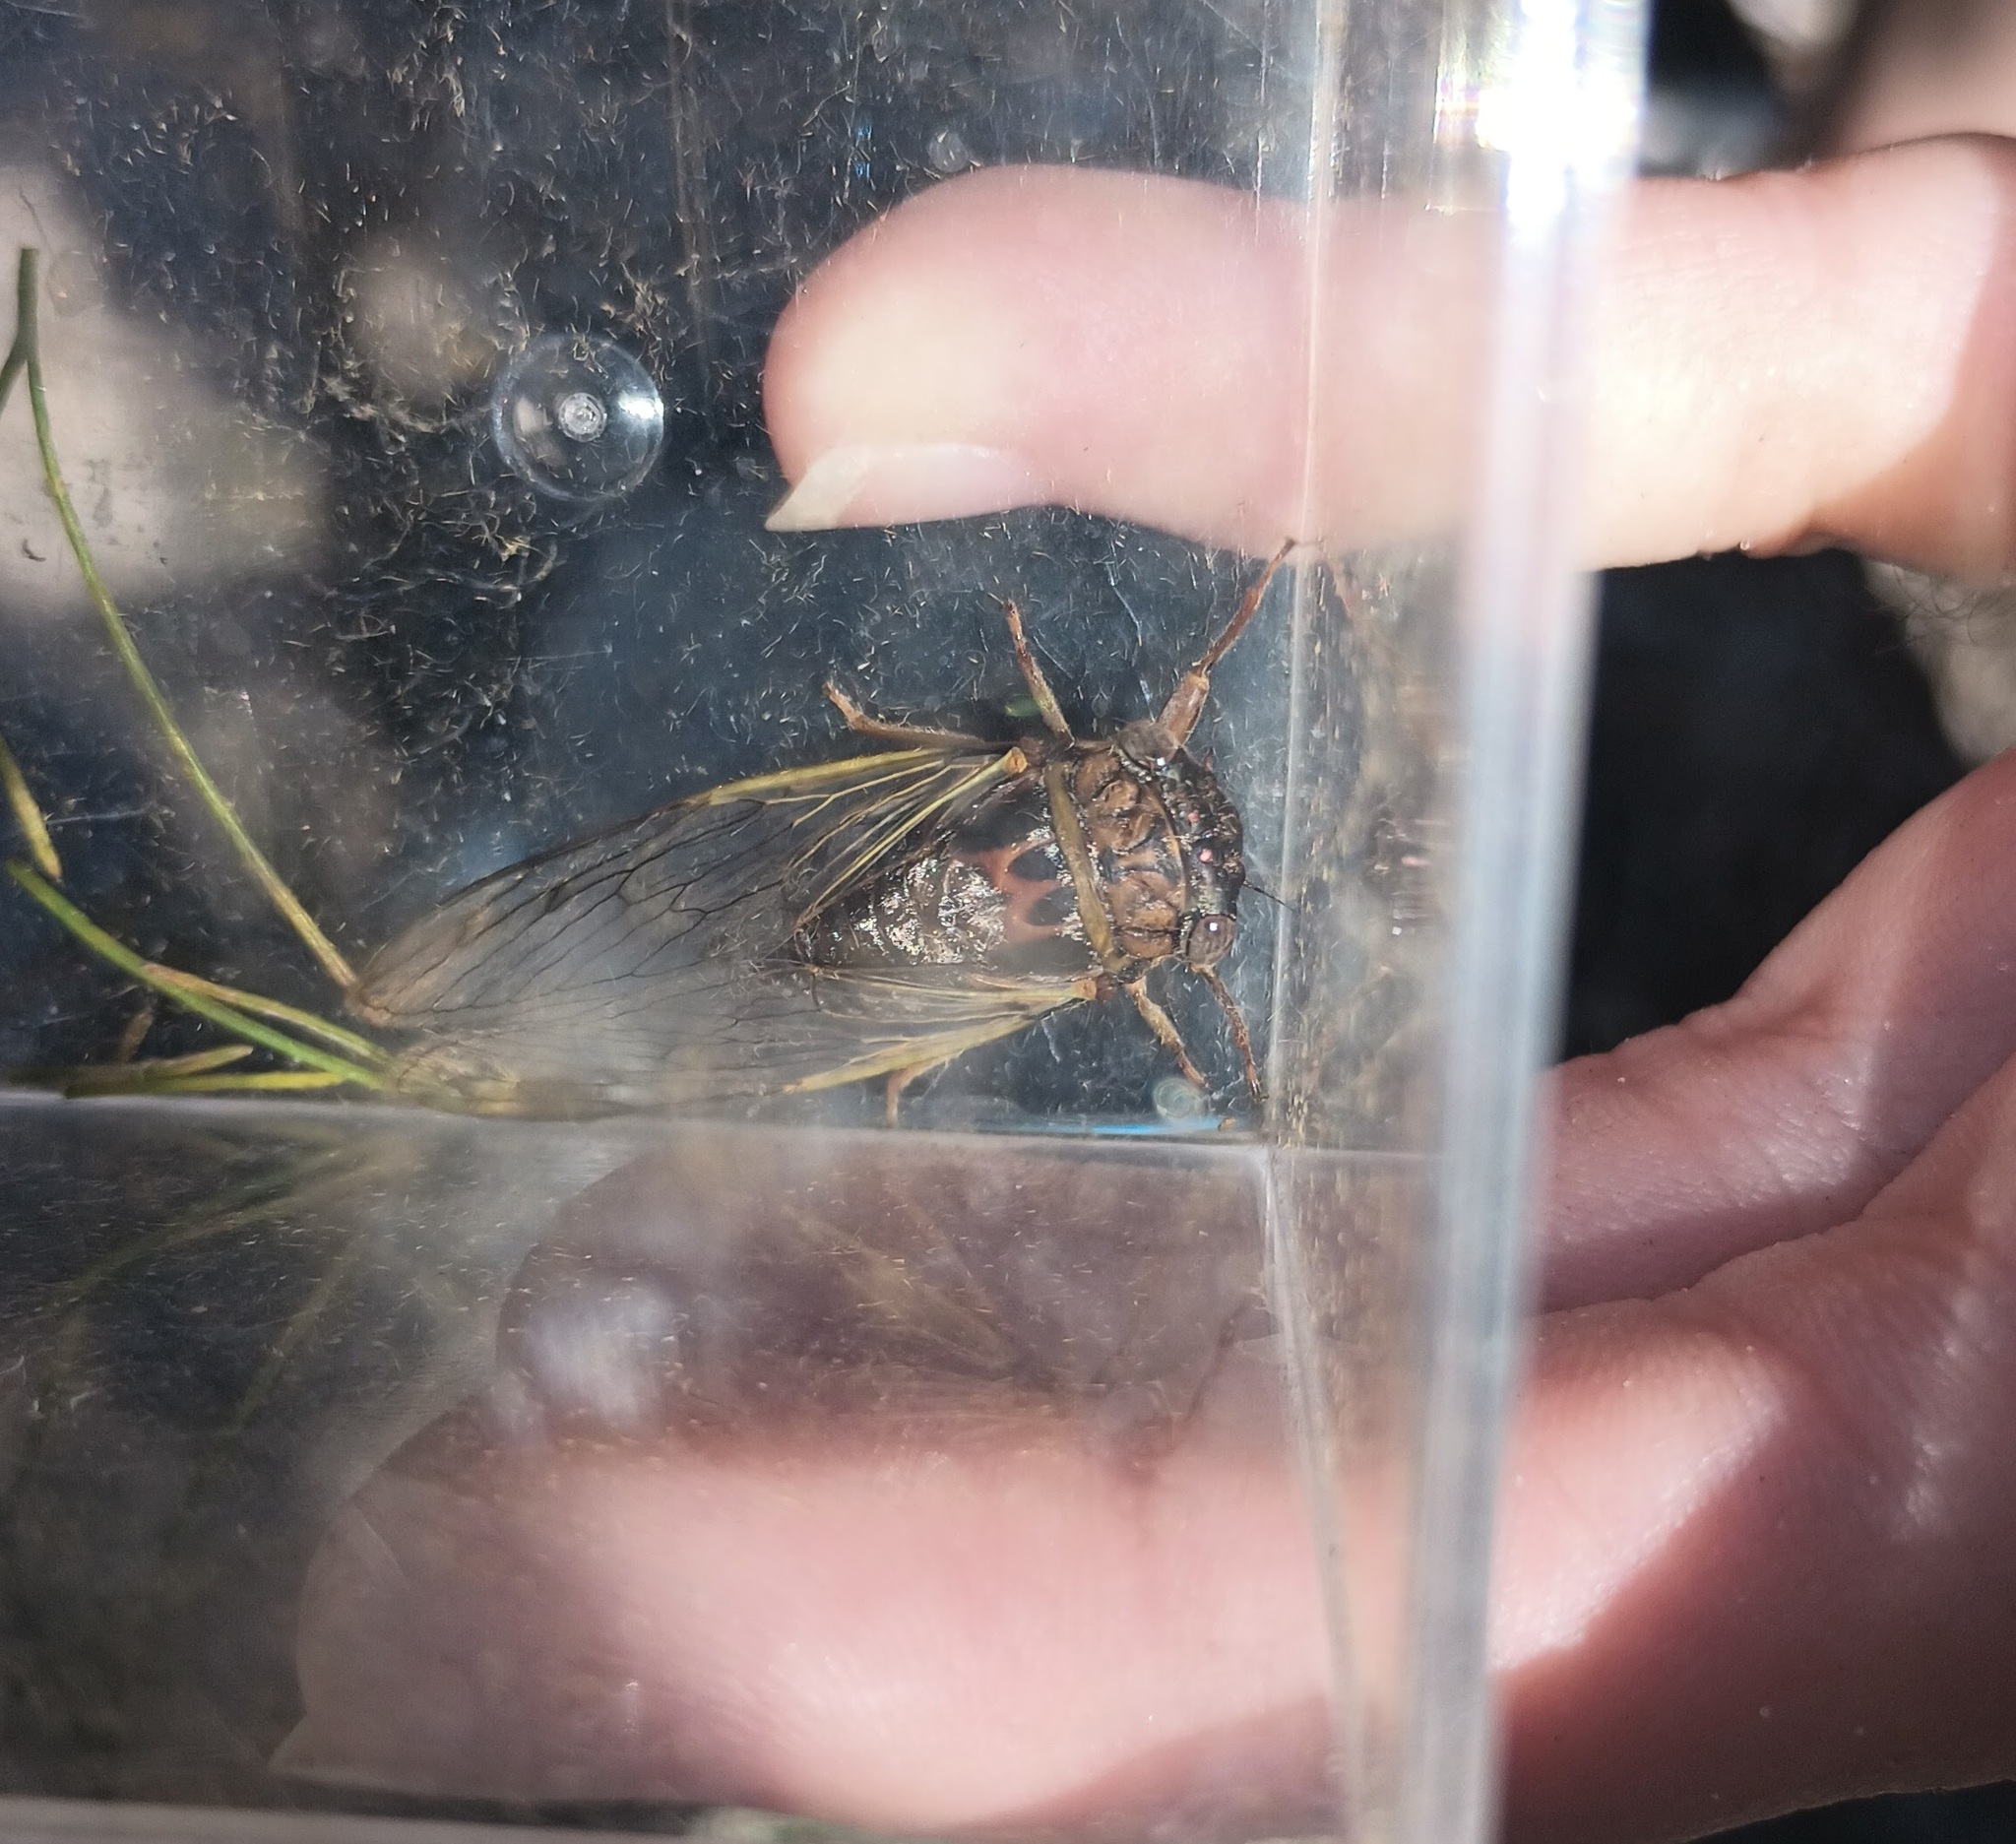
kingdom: Animalia
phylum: Arthropoda
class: Insecta
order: Hemiptera
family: Cicadidae
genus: Diceroprocta
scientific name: Diceroprocta olympusa
